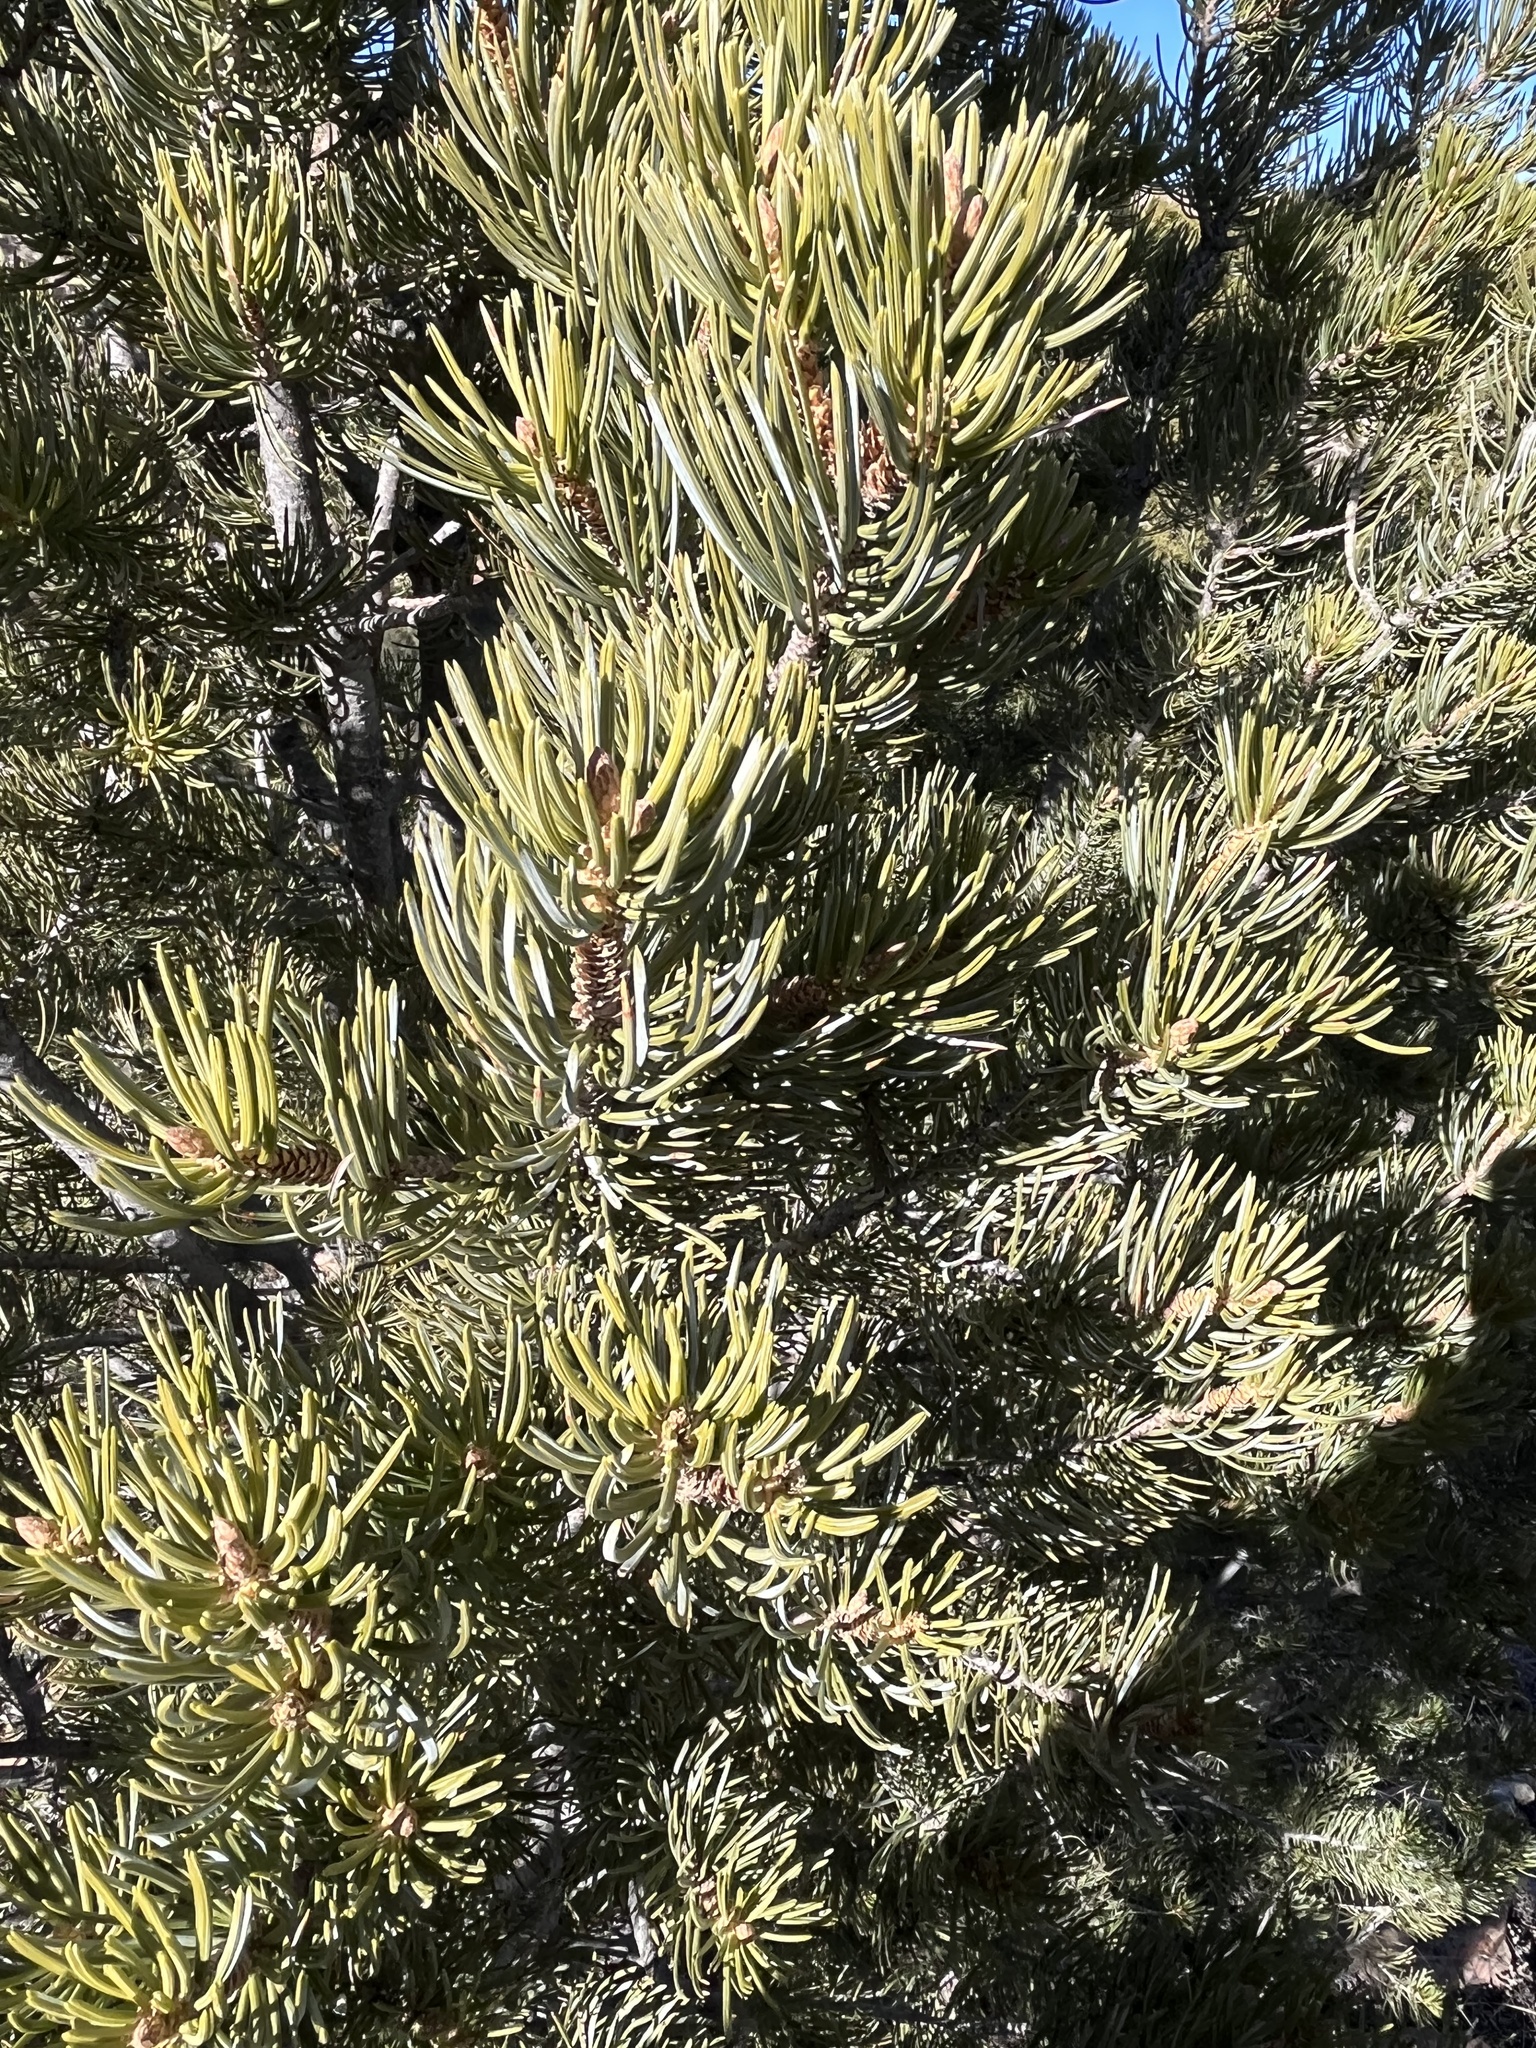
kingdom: Plantae
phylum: Tracheophyta
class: Pinopsida
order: Pinales
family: Pinaceae
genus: Pinus
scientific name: Pinus edulis
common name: Colorado pinyon
